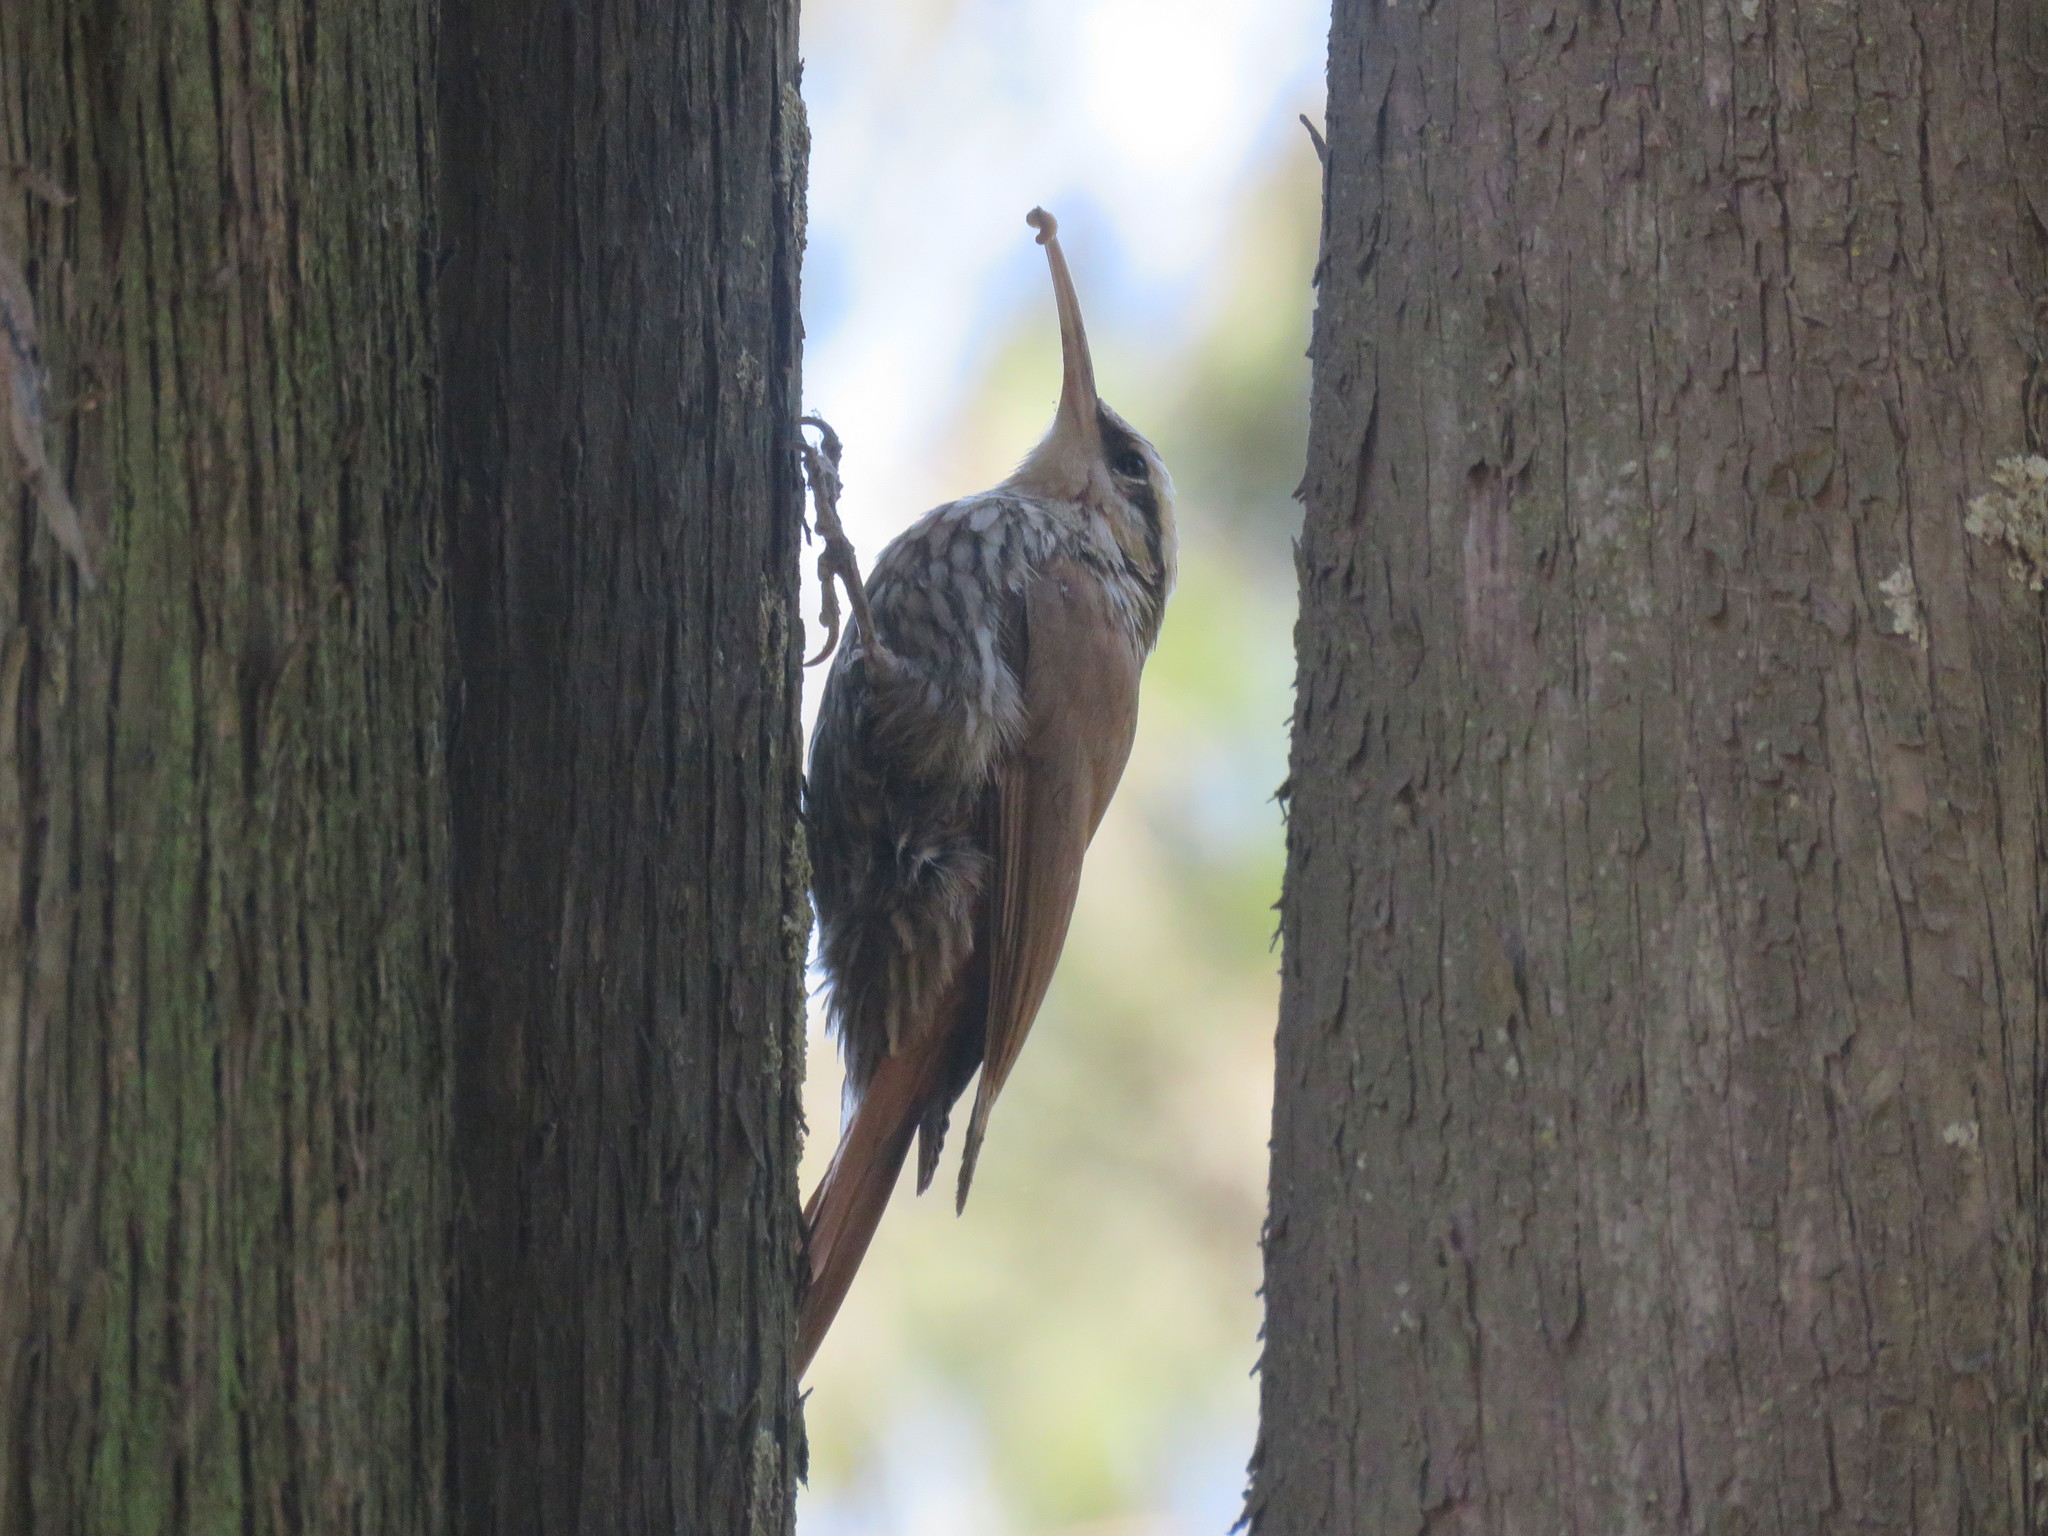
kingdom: Animalia
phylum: Chordata
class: Aves
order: Passeriformes
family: Furnariidae
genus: Lepidocolaptes
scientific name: Lepidocolaptes angustirostris
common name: Narrow-billed woodcreeper
